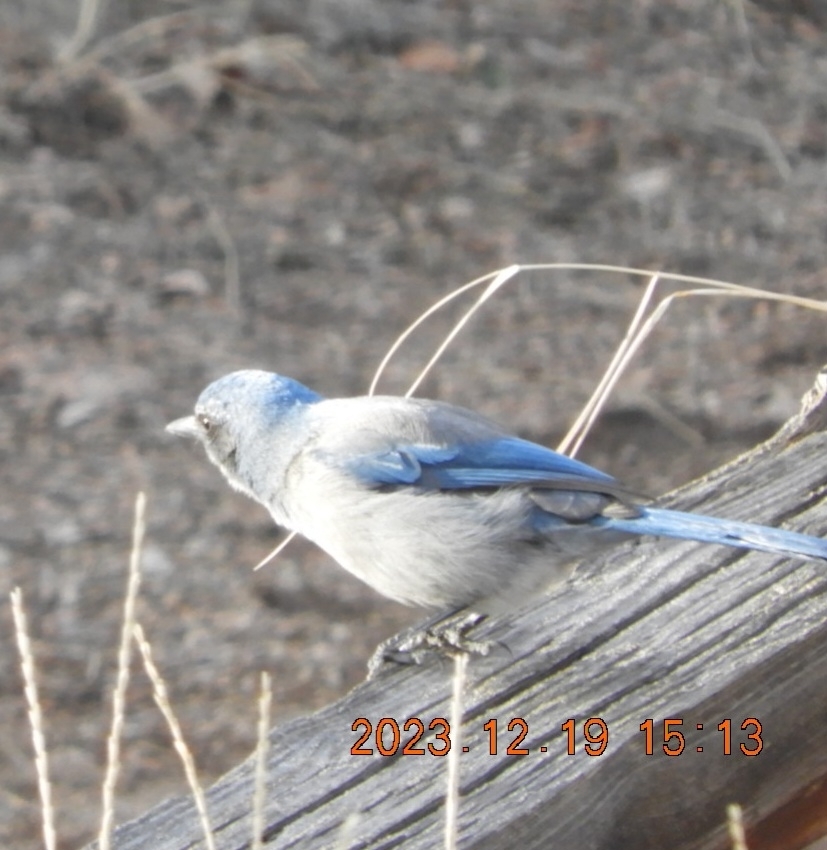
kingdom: Animalia
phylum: Chordata
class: Aves
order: Passeriformes
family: Corvidae
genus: Aphelocoma
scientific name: Aphelocoma woodhouseii
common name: Woodhouse's scrub-jay
